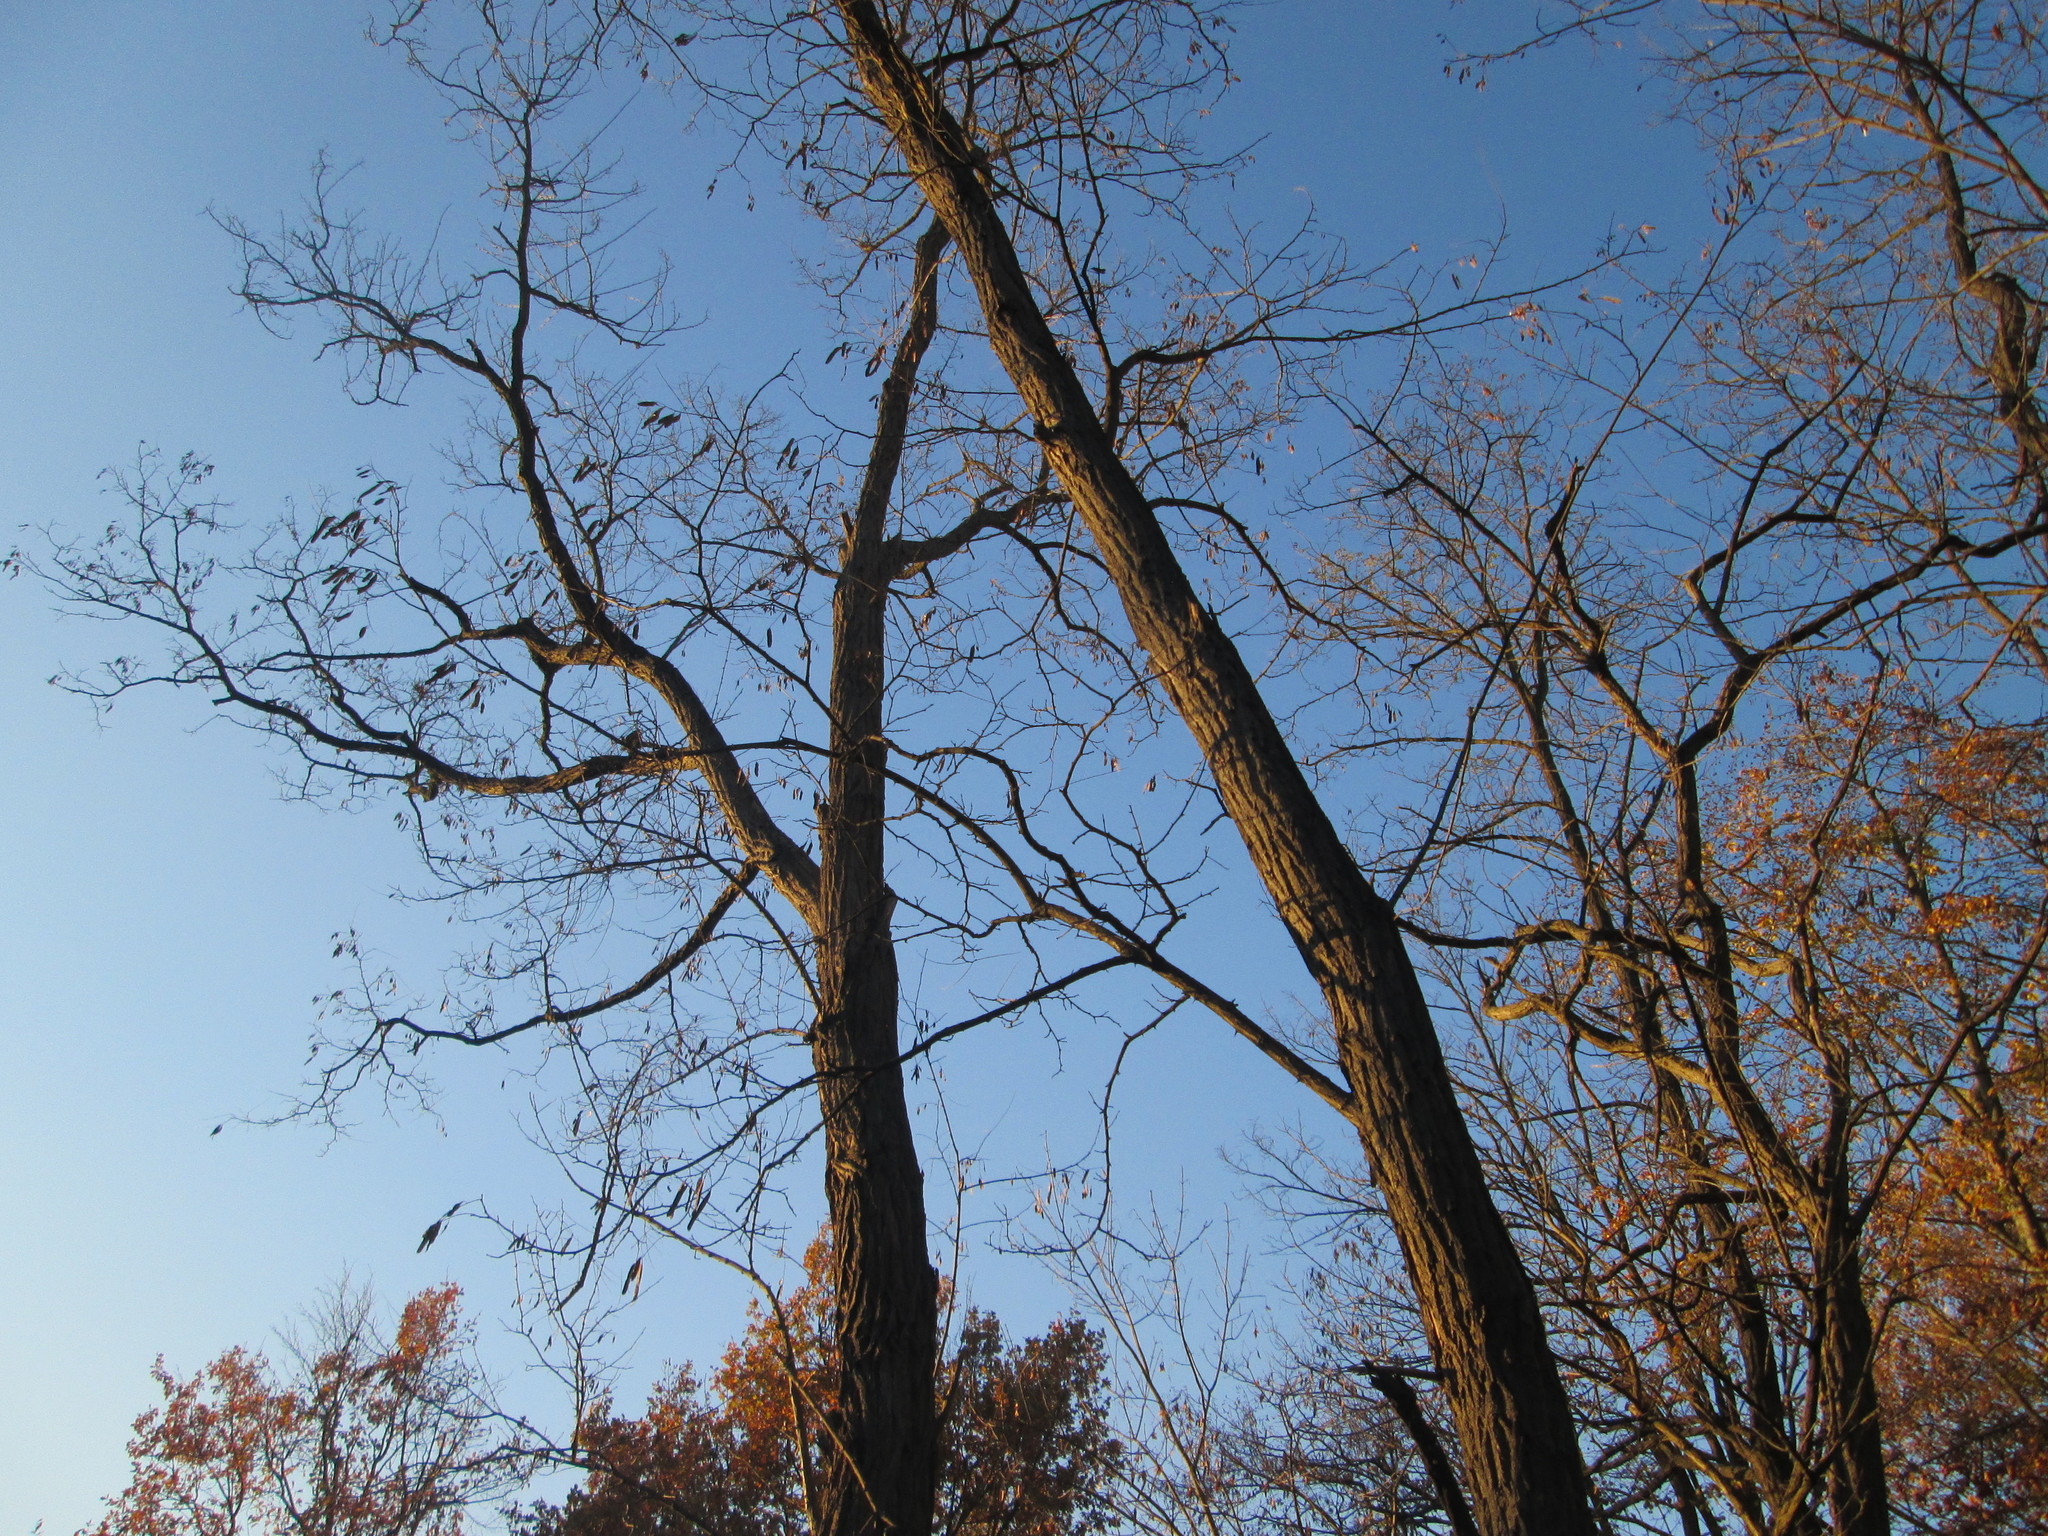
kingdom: Plantae
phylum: Tracheophyta
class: Magnoliopsida
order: Fabales
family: Fabaceae
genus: Robinia
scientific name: Robinia pseudoacacia
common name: Black locust
